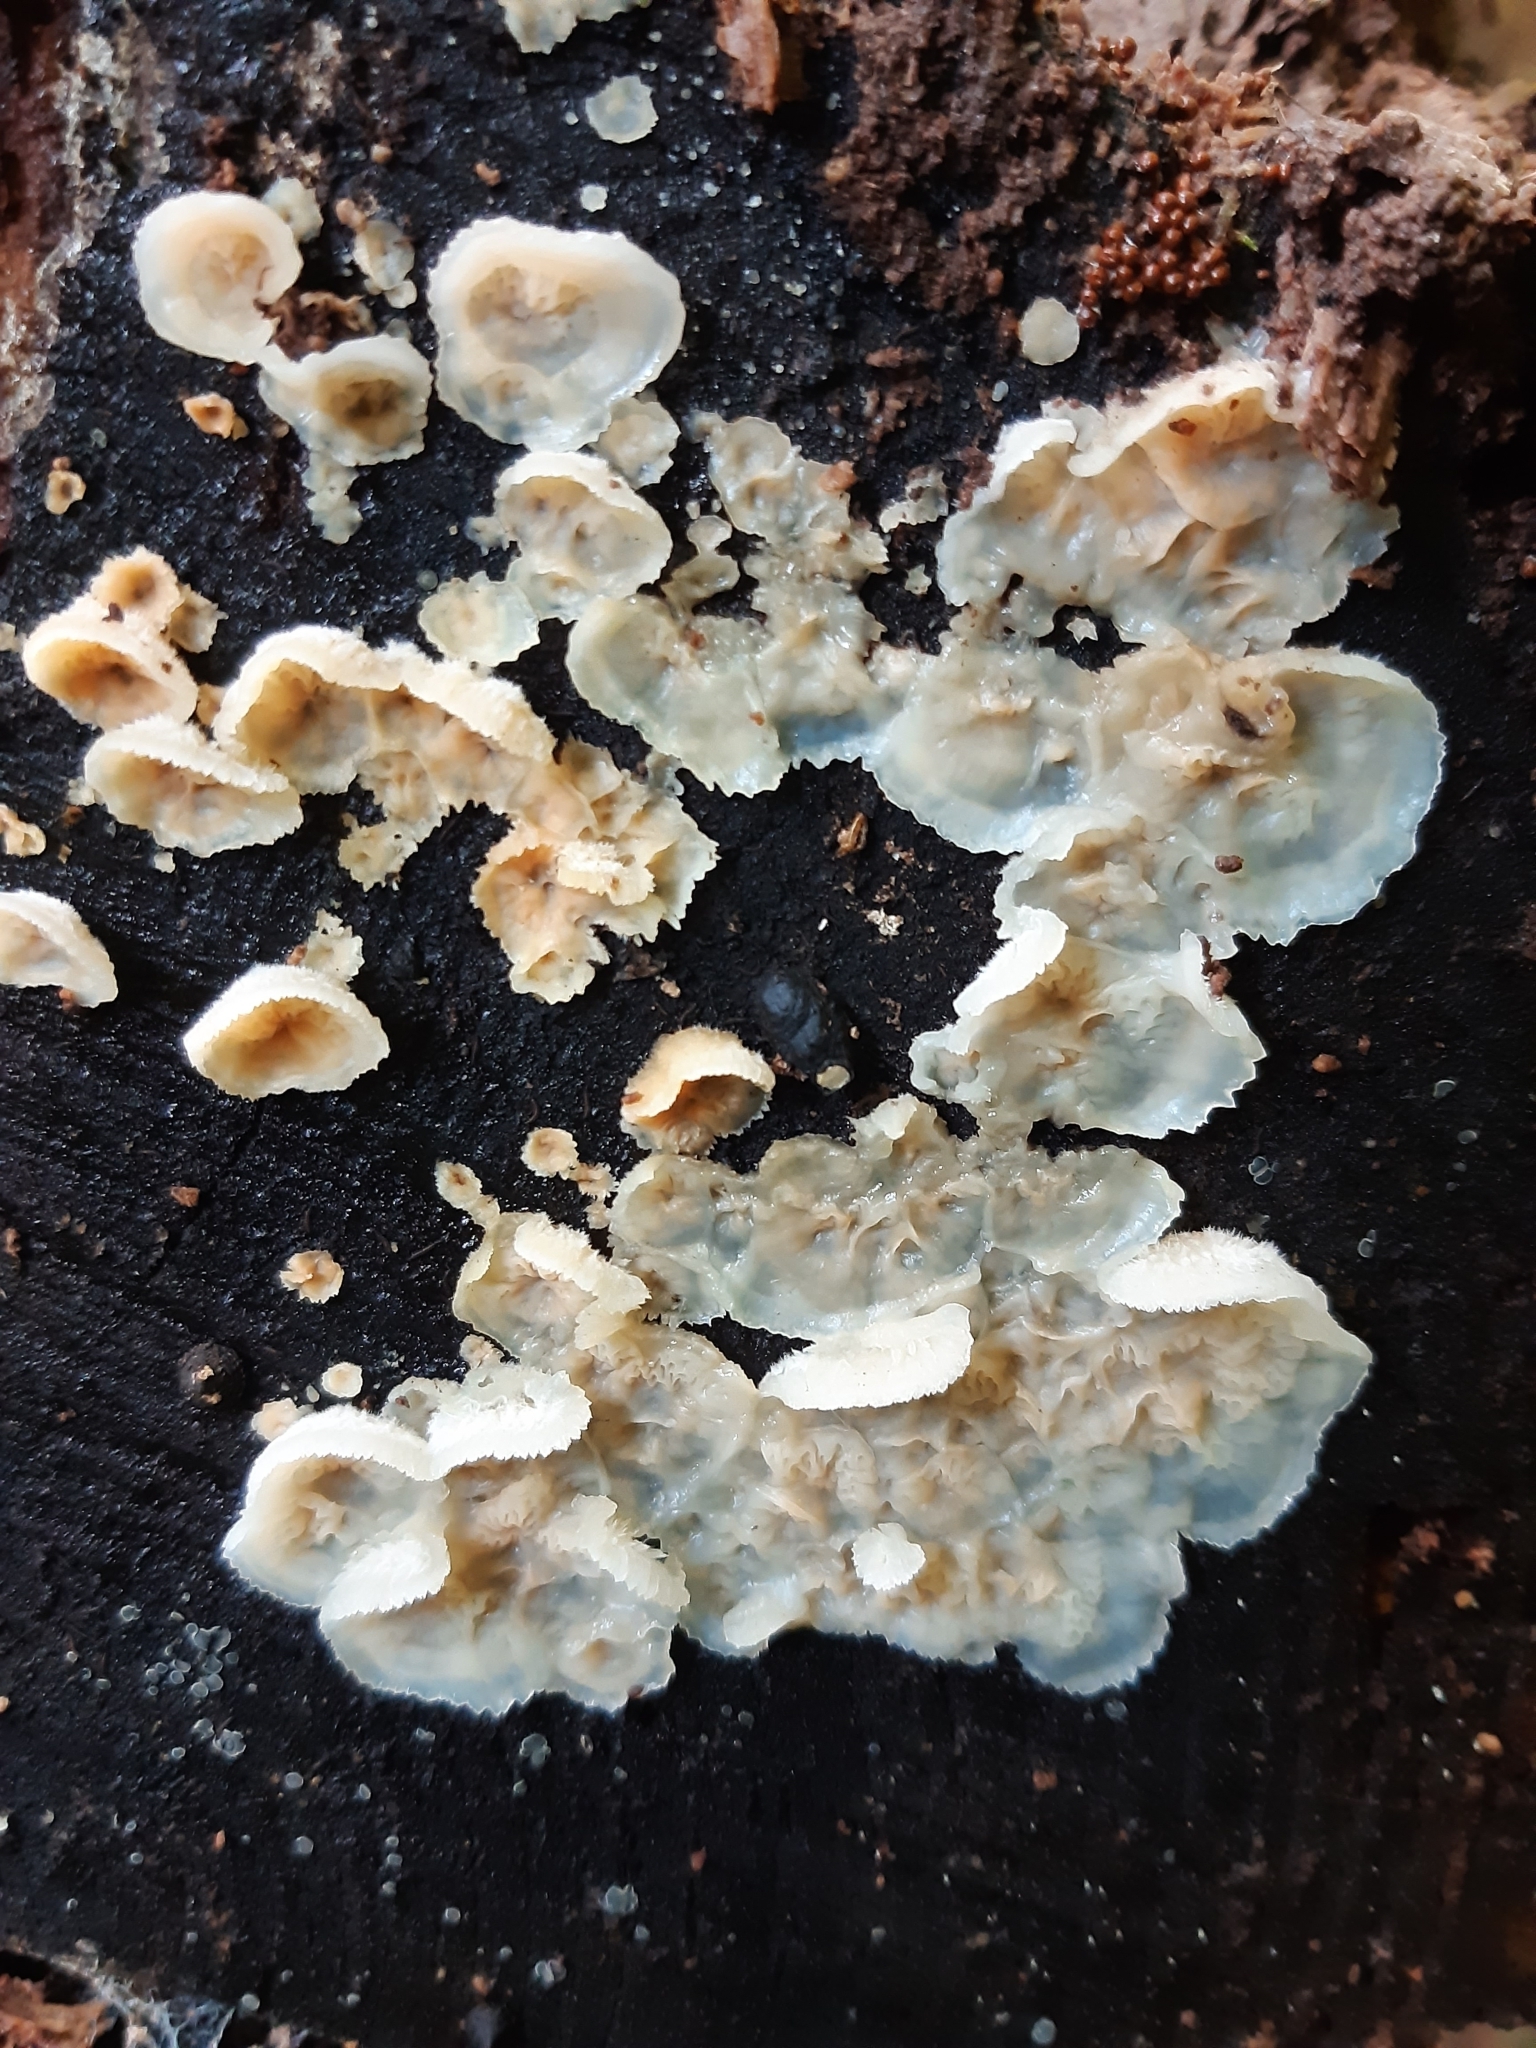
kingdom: Fungi
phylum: Basidiomycota
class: Agaricomycetes
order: Polyporales
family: Meruliaceae
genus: Phlebia
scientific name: Phlebia tremellosa
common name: Jelly rot
